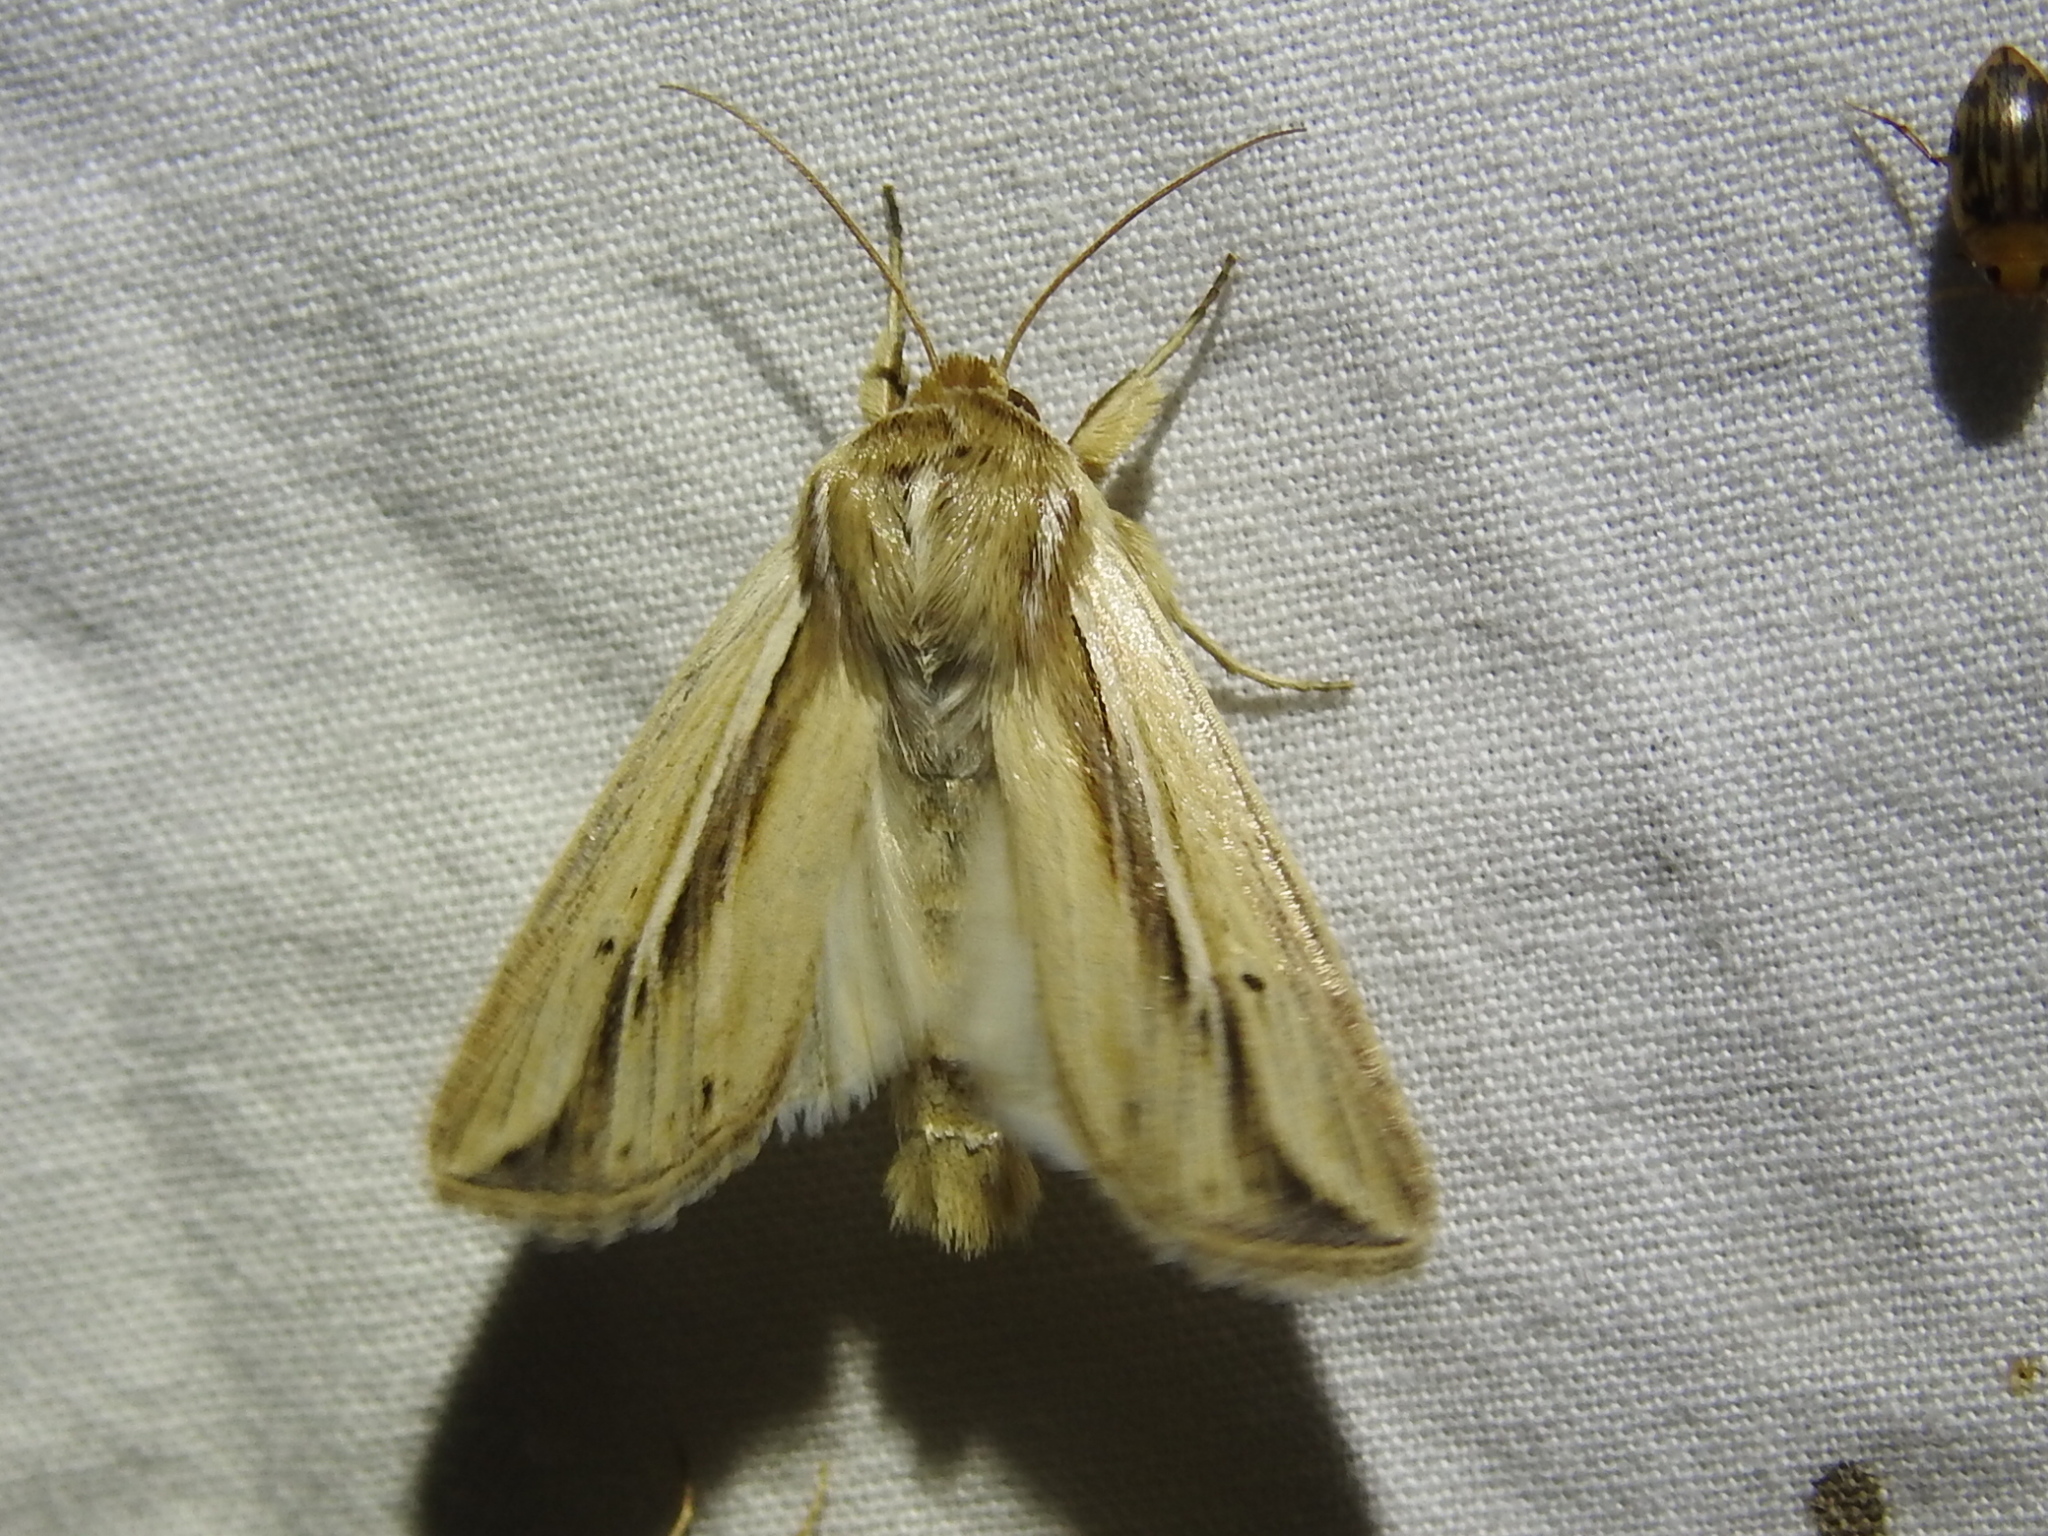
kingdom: Animalia
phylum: Arthropoda
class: Insecta
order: Lepidoptera
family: Noctuidae
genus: Dargida
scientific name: Dargida diffusa
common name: Wheat head armyworm
